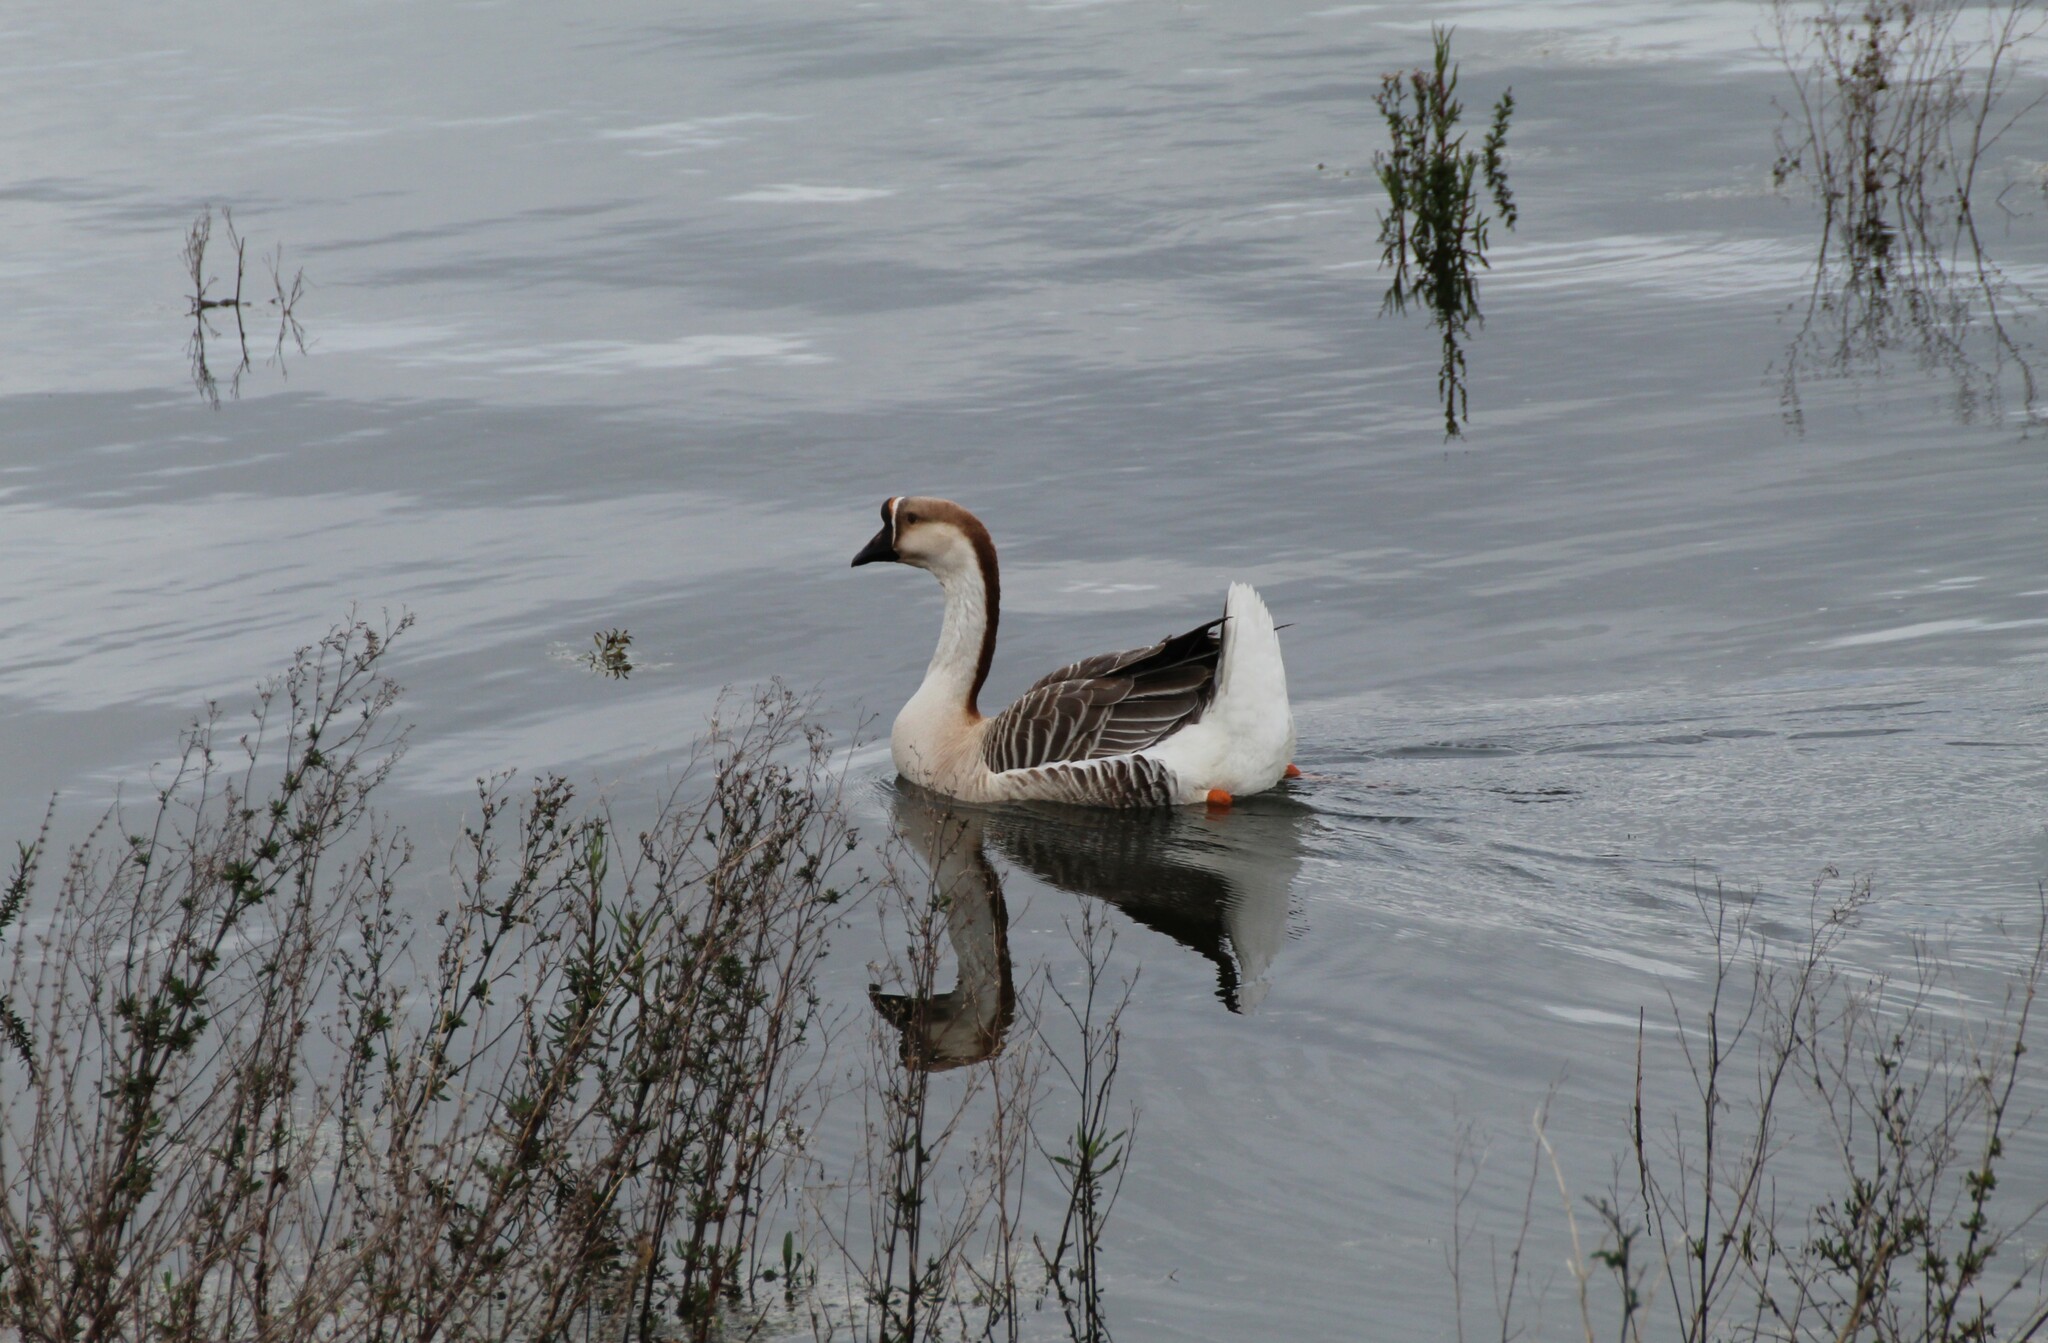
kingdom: Animalia
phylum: Chordata
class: Aves
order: Anseriformes
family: Anatidae
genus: Anser
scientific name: Anser cygnoides
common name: Swan goose
